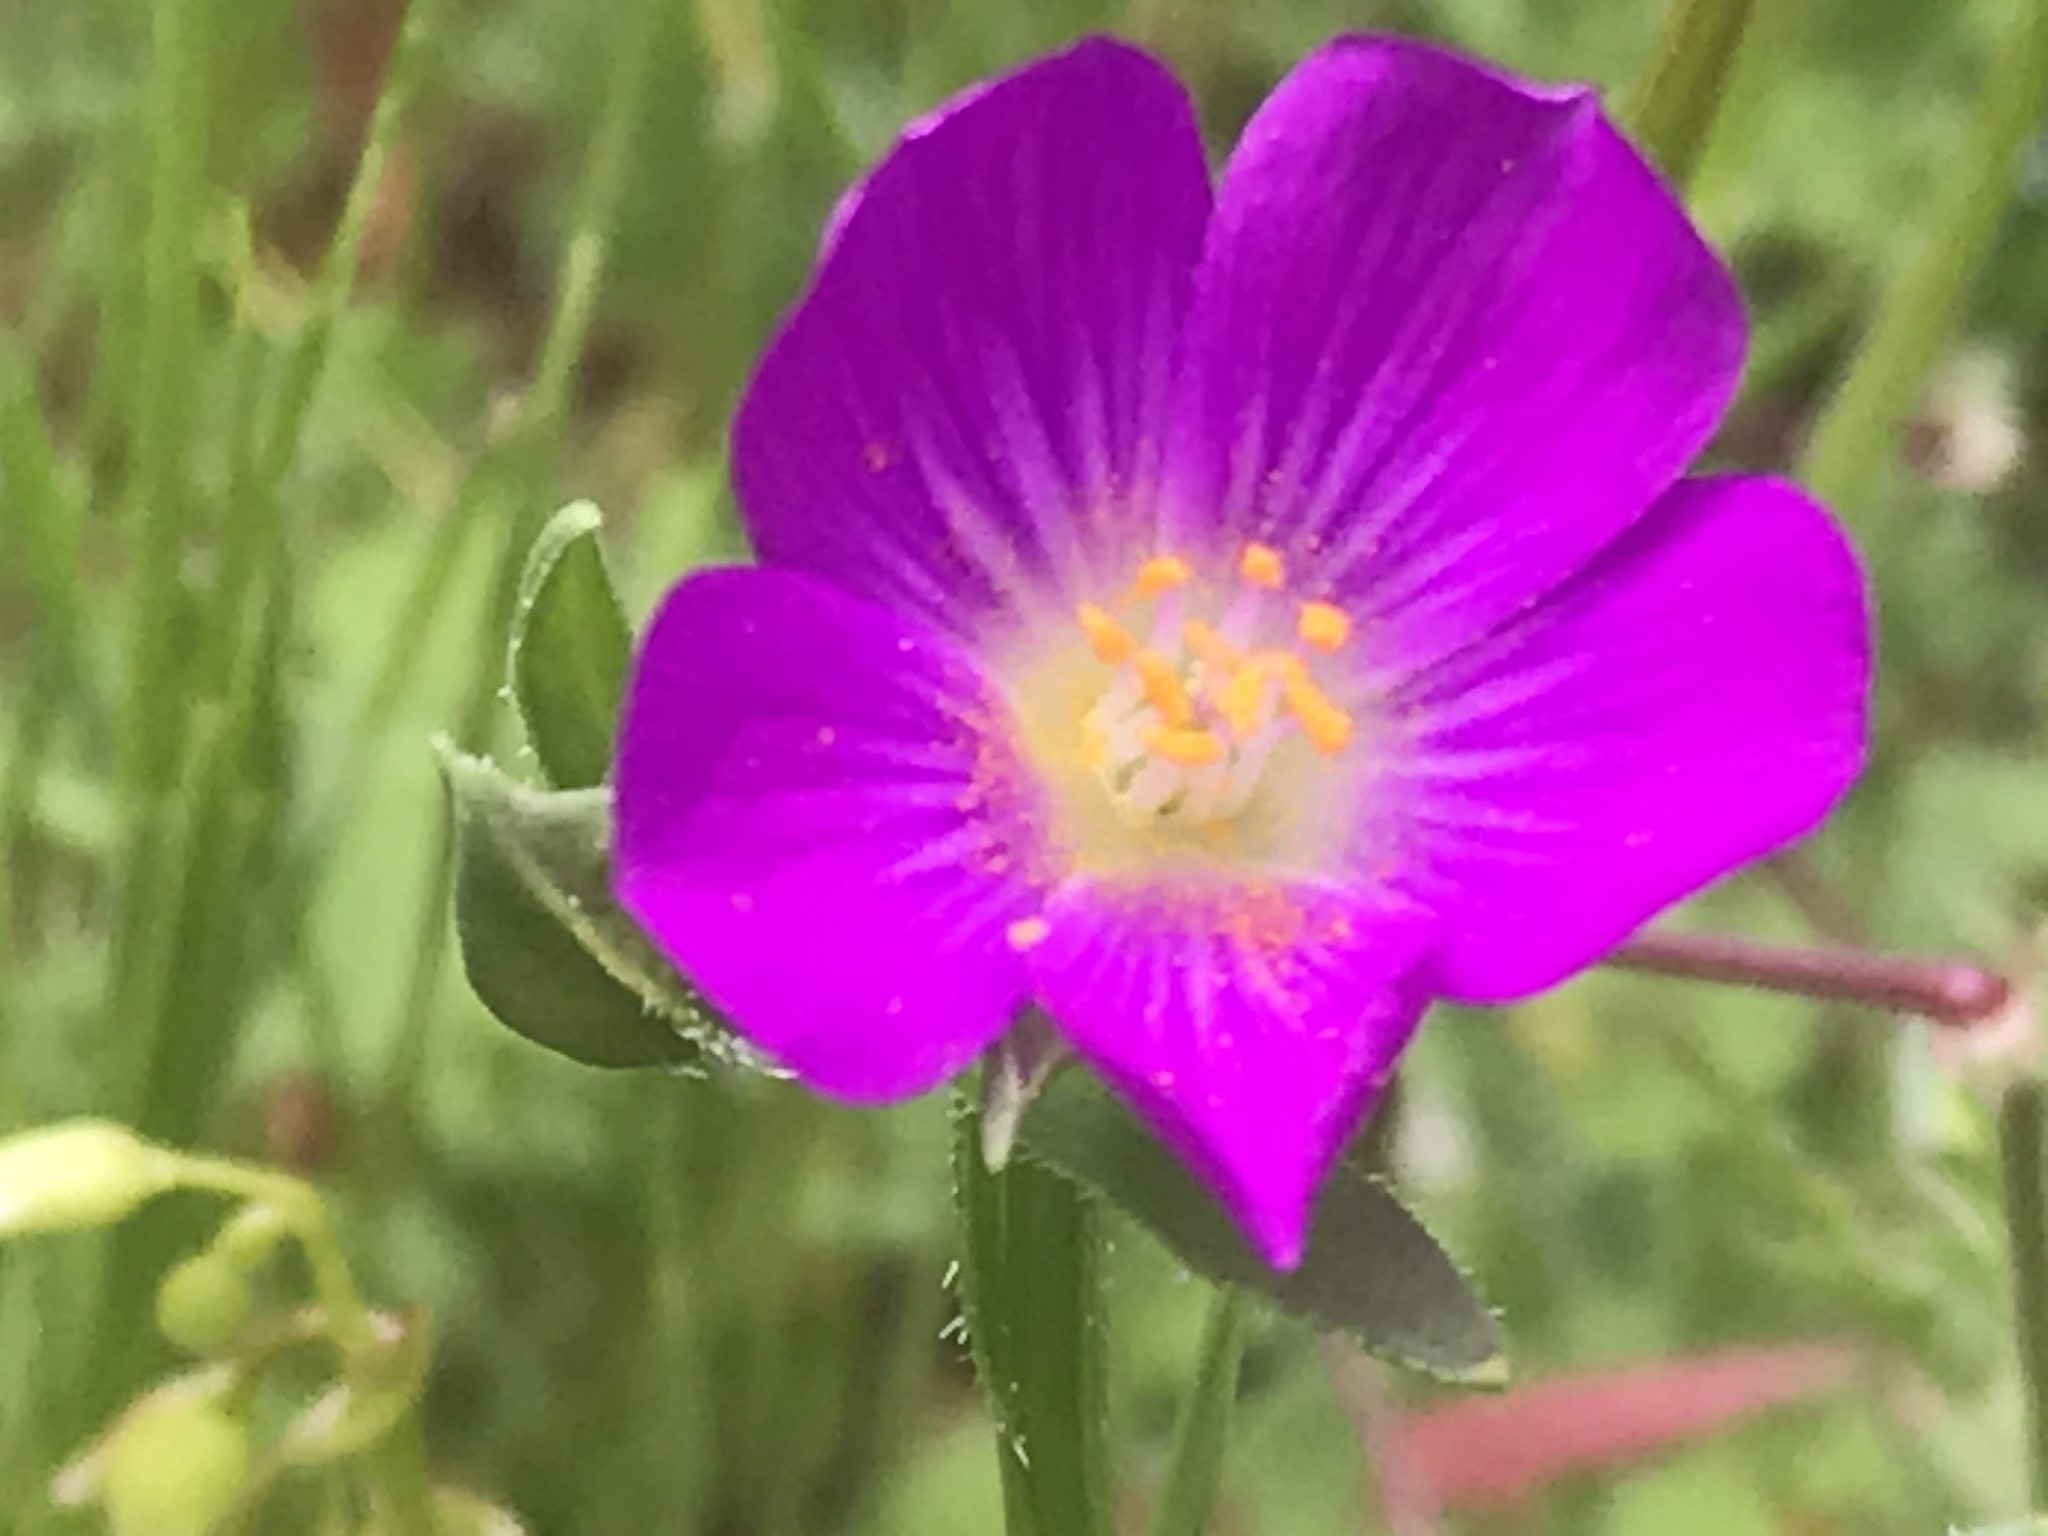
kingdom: Plantae
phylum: Tracheophyta
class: Magnoliopsida
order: Caryophyllales
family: Montiaceae
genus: Calandrinia
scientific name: Calandrinia menziesii
